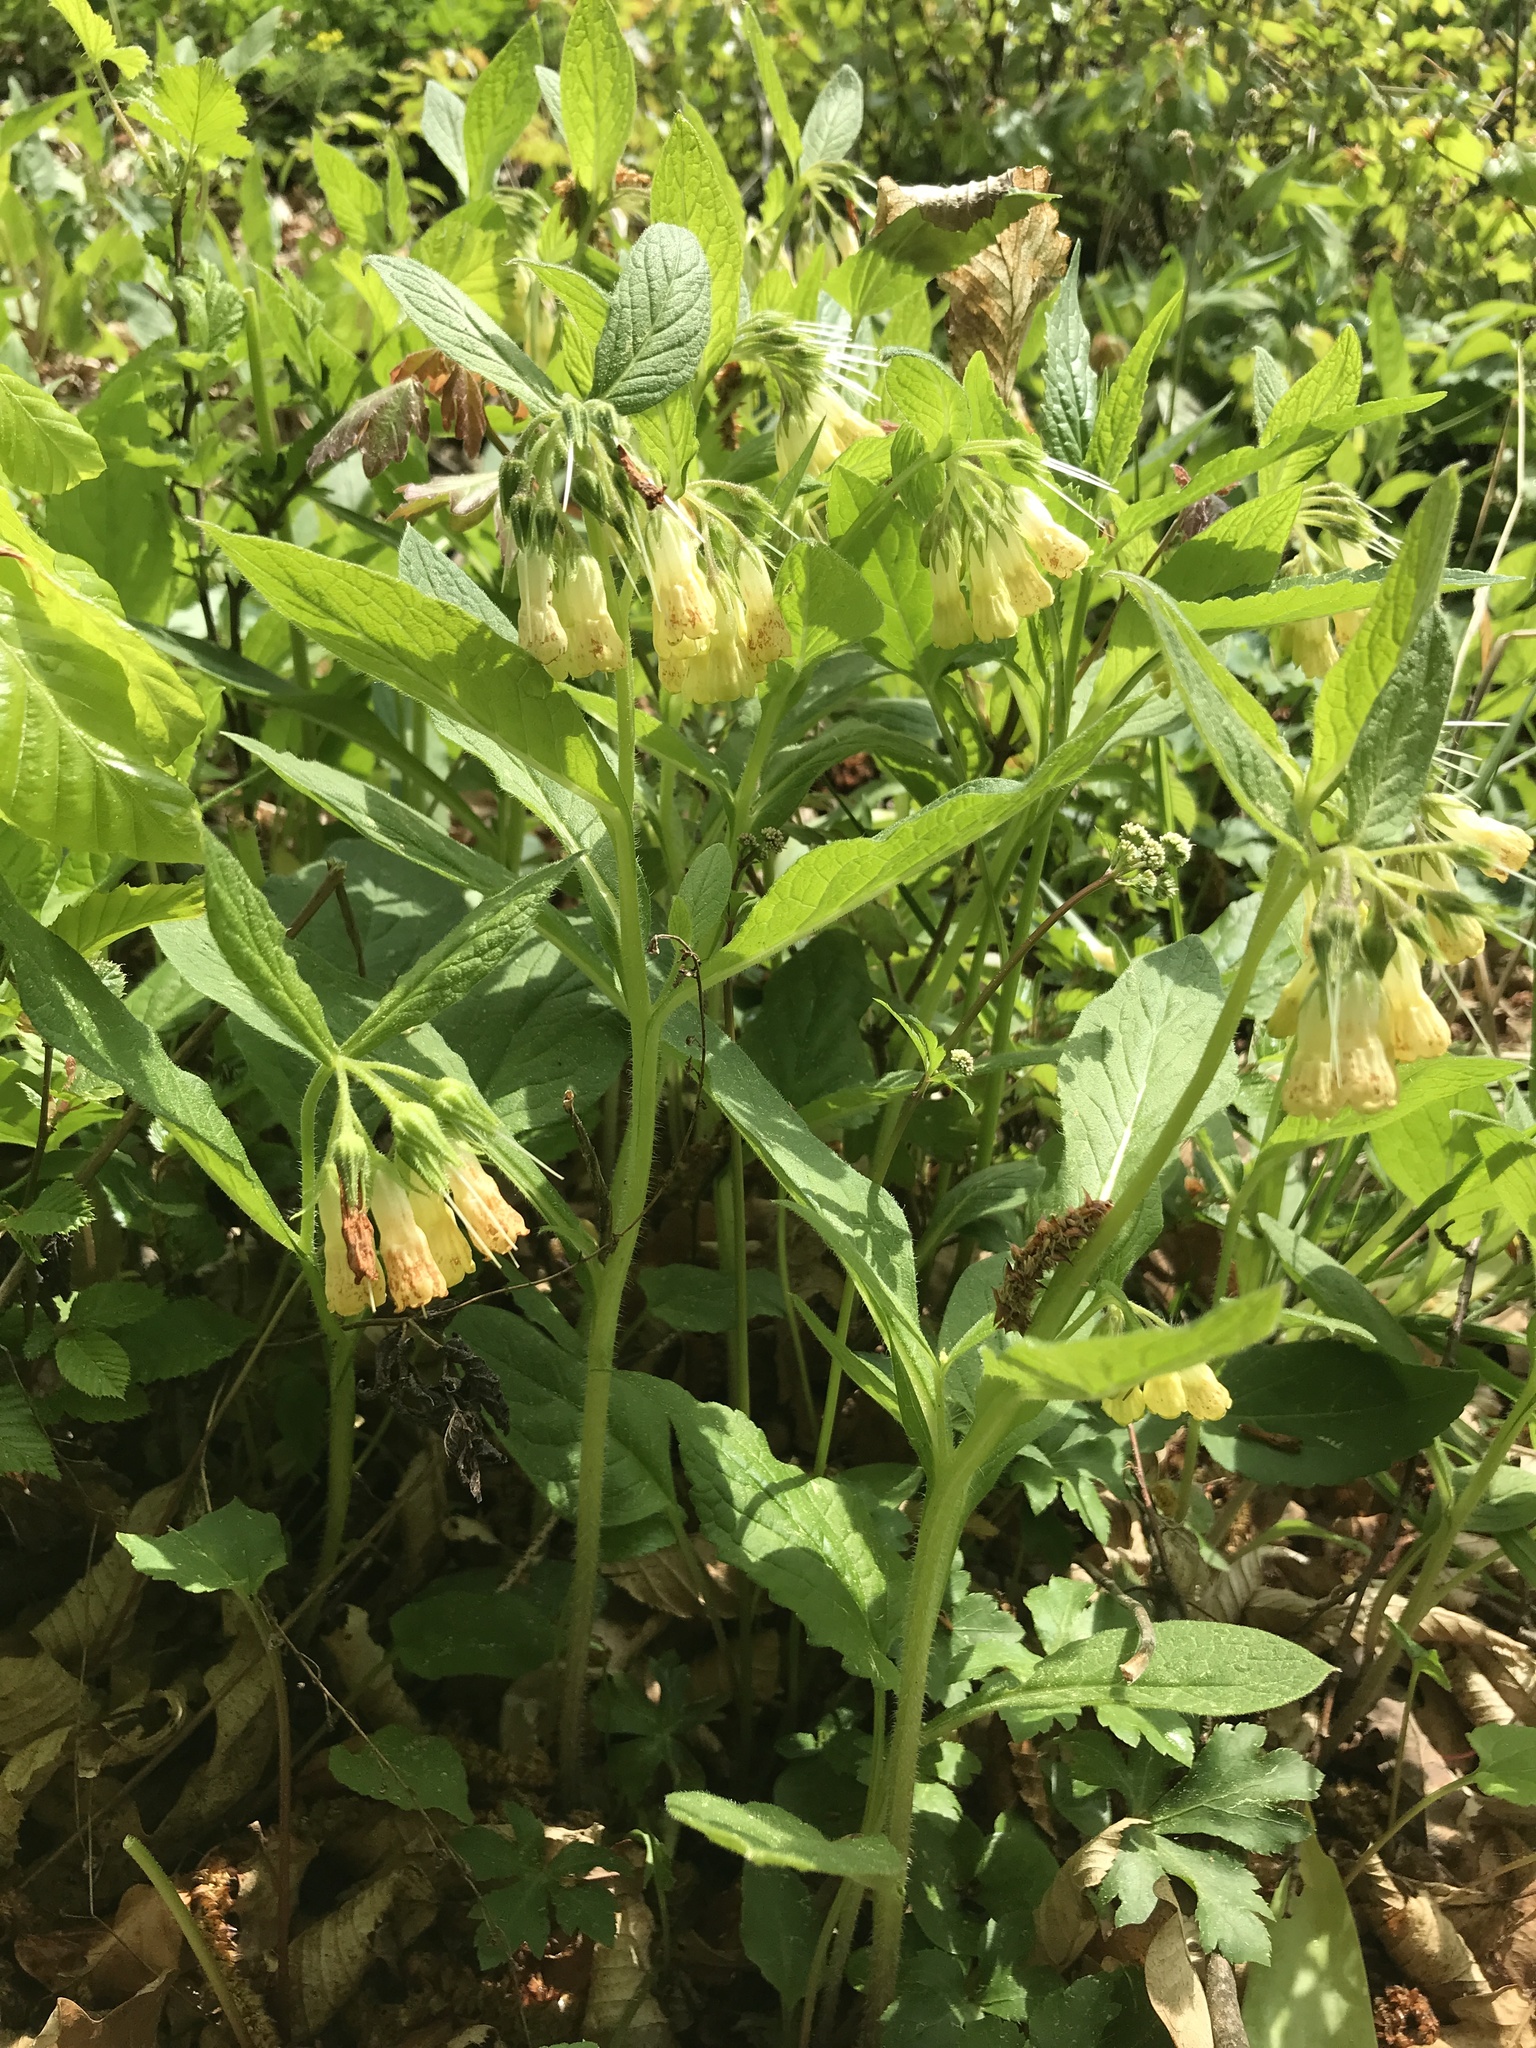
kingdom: Plantae
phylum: Tracheophyta
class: Magnoliopsida
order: Boraginales
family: Boraginaceae
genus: Symphytum
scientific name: Symphytum tuberosum
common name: Tuberous comfrey
